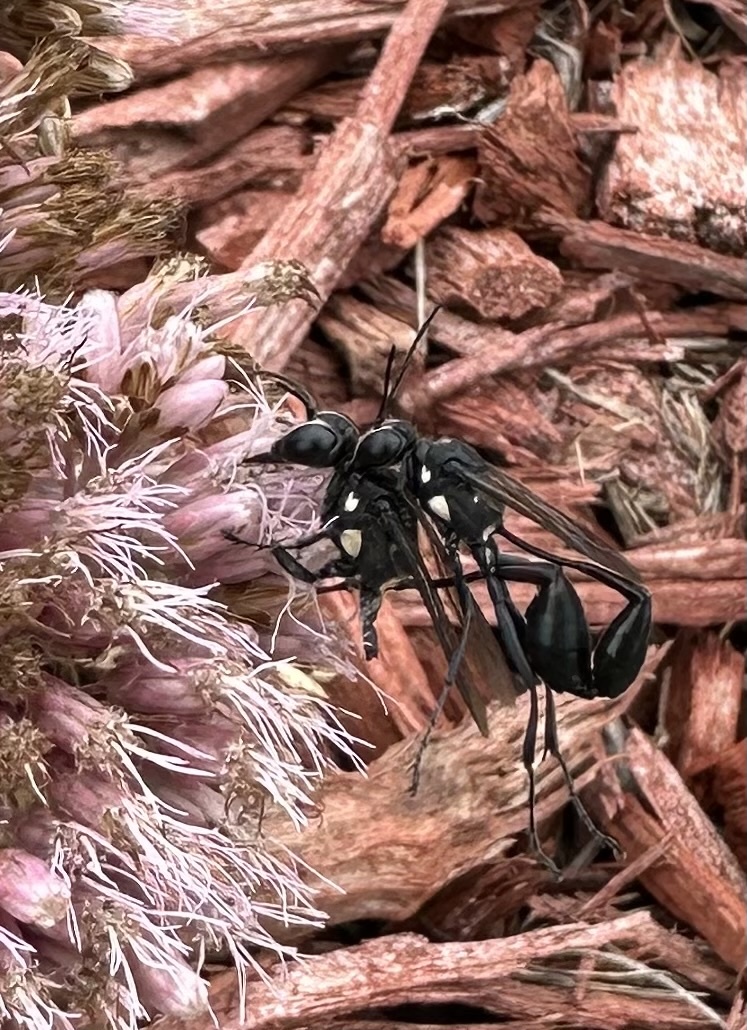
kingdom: Animalia
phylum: Arthropoda
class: Insecta
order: Hymenoptera
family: Sphecidae
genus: Eremnophila
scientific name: Eremnophila aureonotata
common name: Gold-marked thread-waisted wasp
